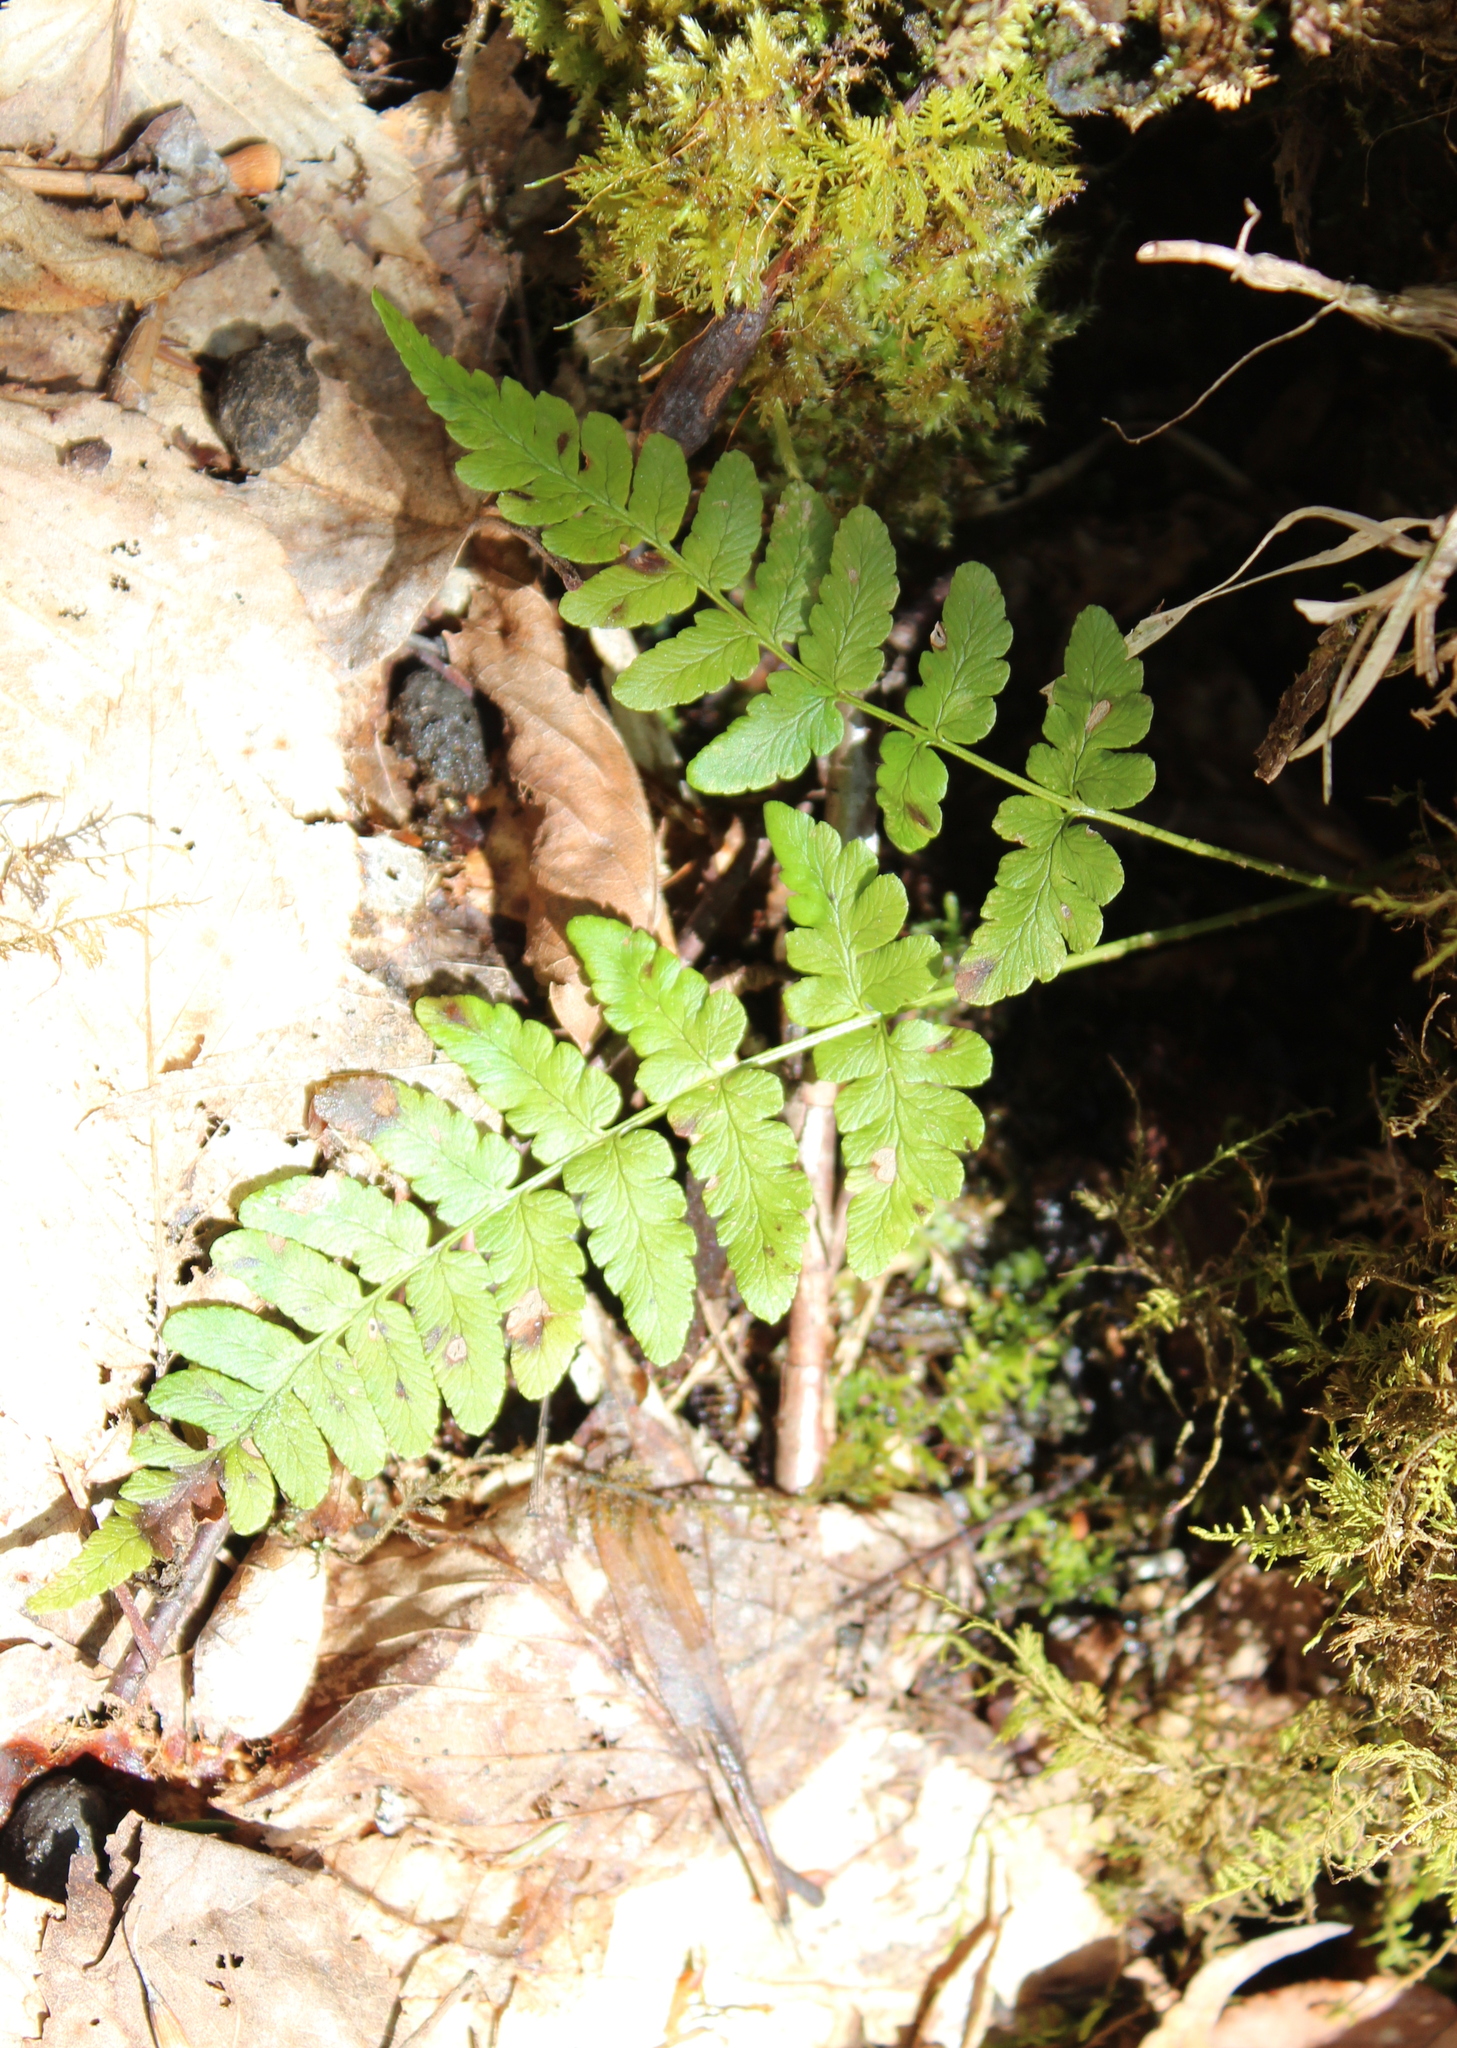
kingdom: Plantae
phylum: Tracheophyta
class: Polypodiopsida
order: Polypodiales
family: Dryopteridaceae
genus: Dryopteris
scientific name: Dryopteris marginalis
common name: Marginal wood fern
